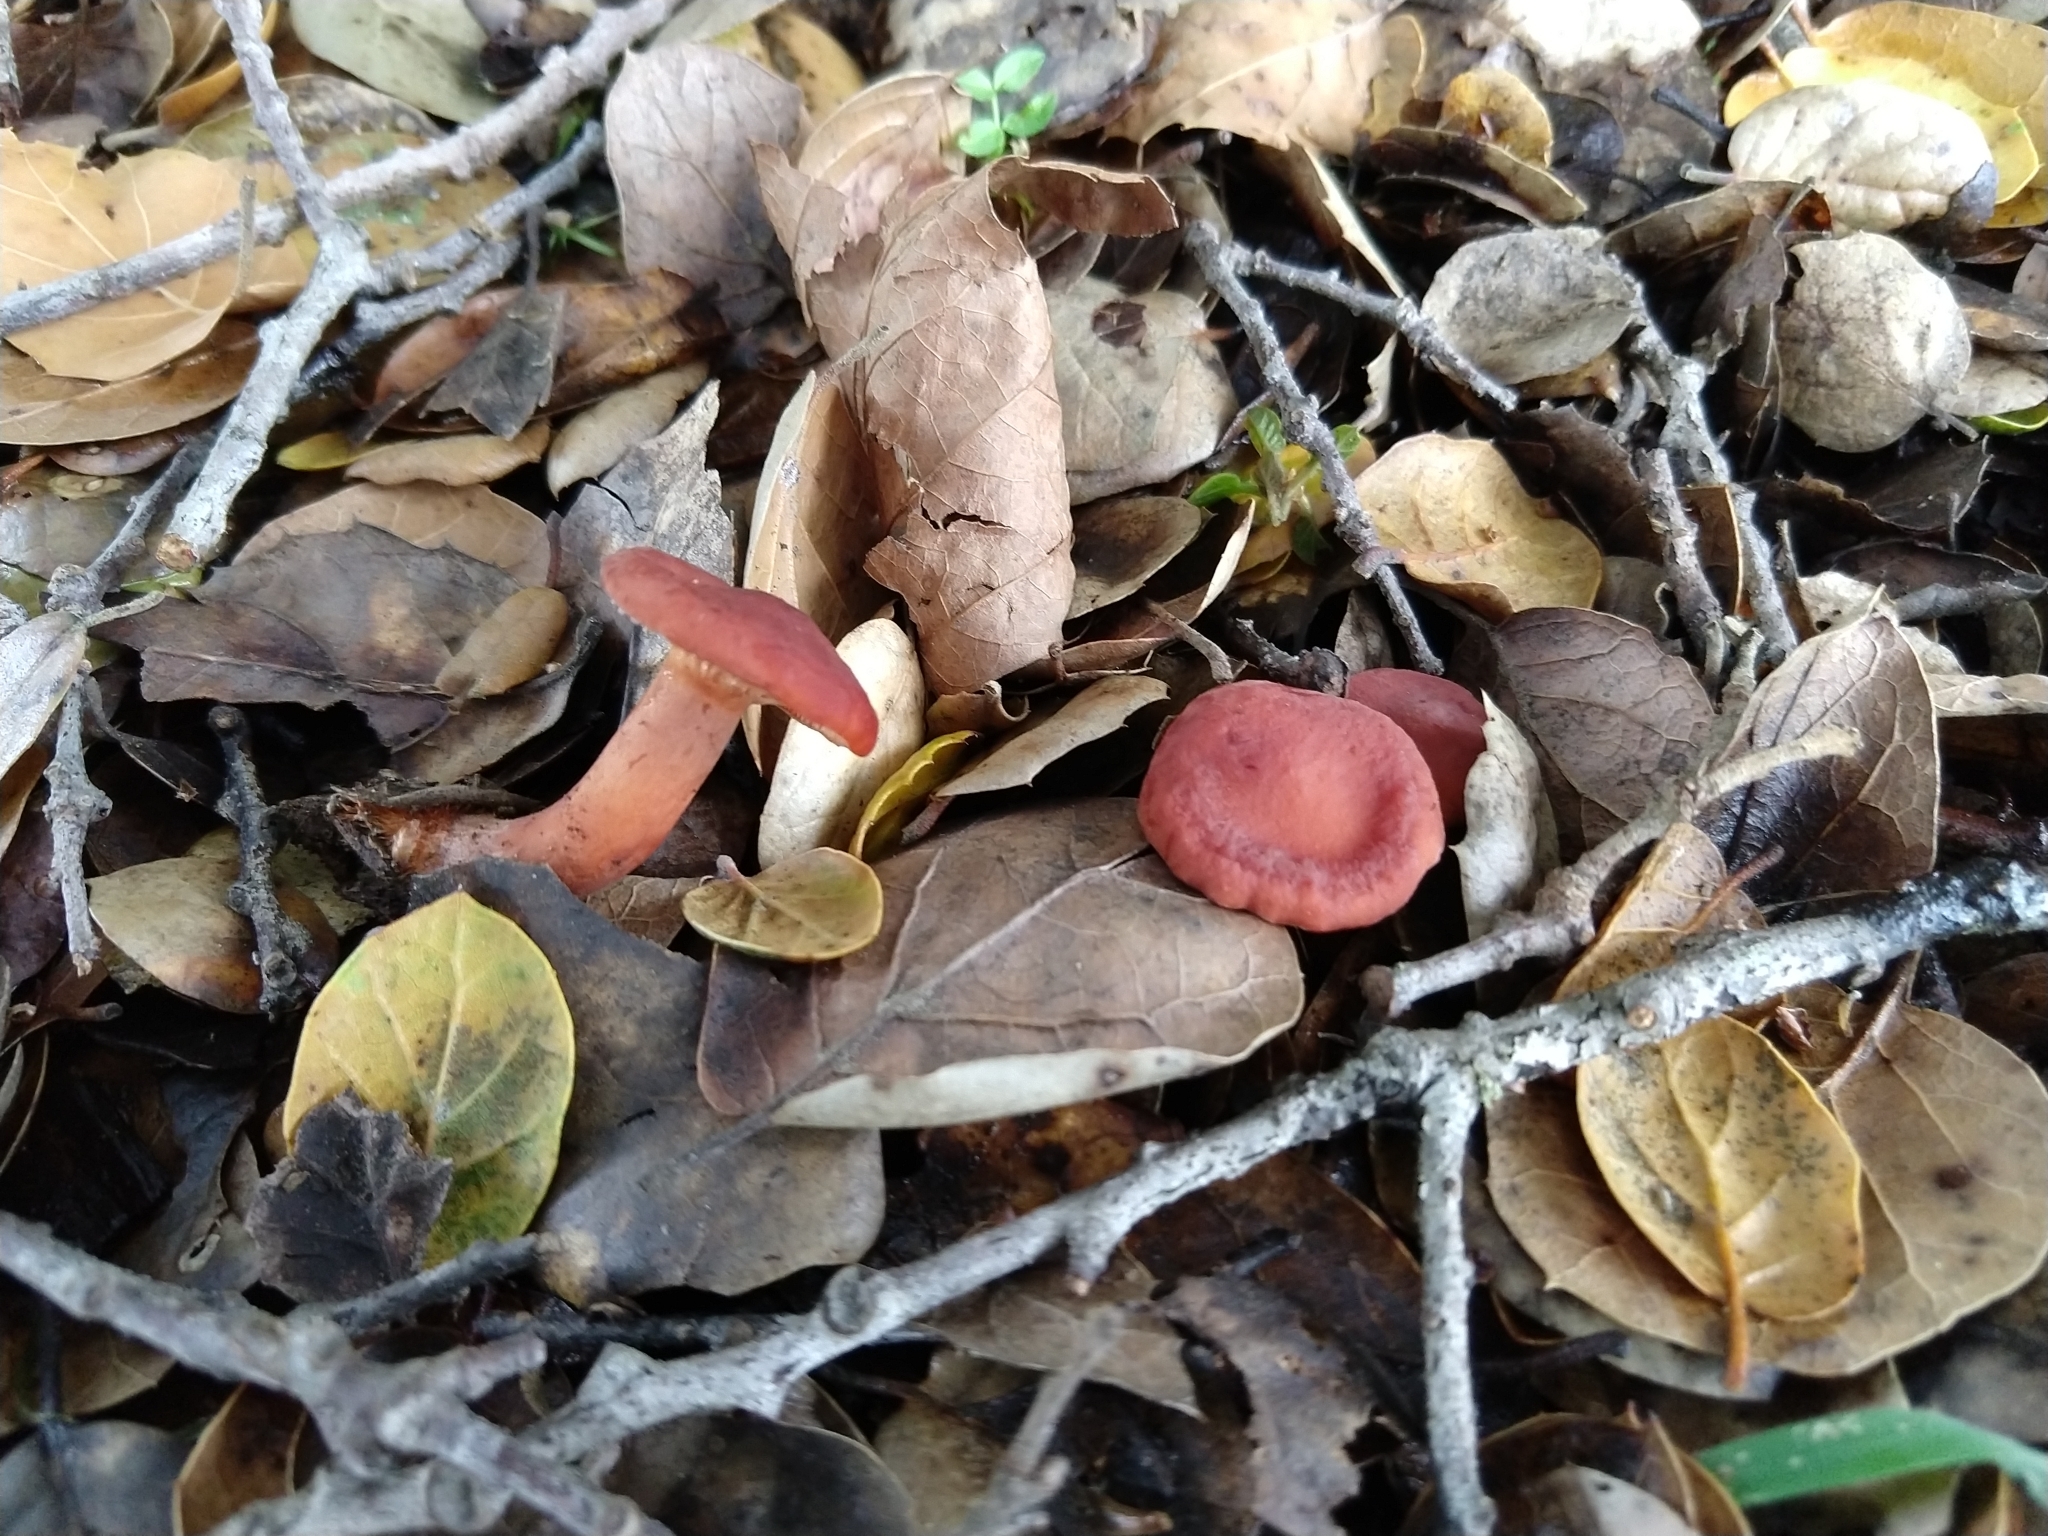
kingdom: Fungi
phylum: Basidiomycota
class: Agaricomycetes
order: Russulales
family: Russulaceae
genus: Lactarius
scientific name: Lactarius rufulus
